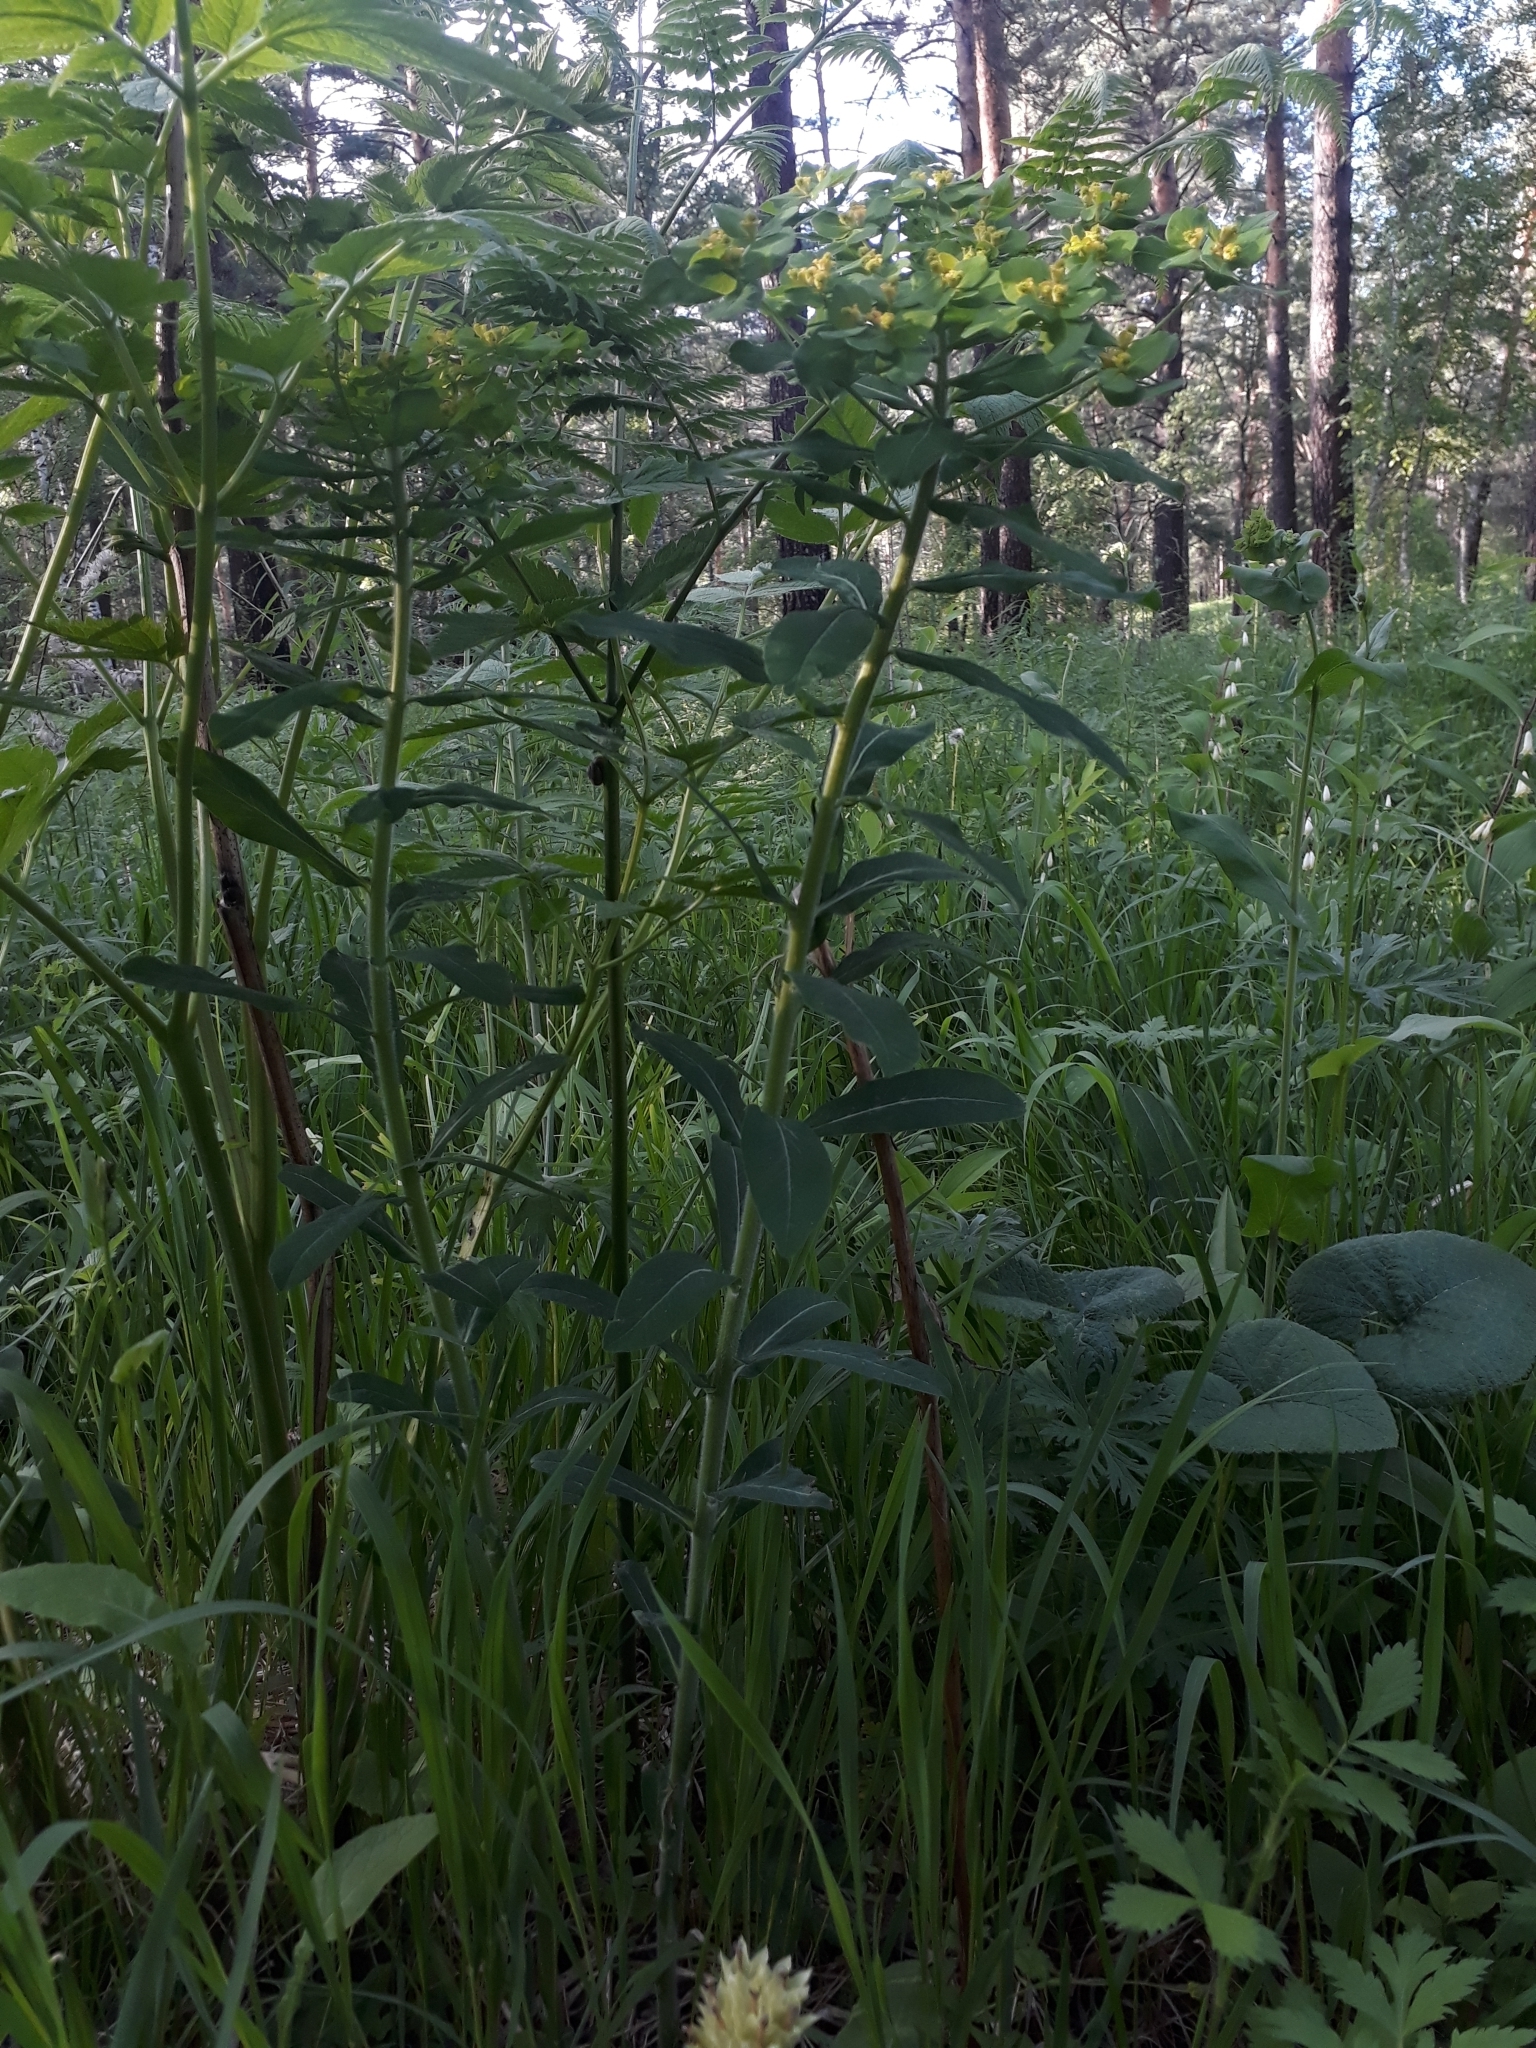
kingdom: Plantae
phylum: Tracheophyta
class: Magnoliopsida
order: Malpighiales
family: Euphorbiaceae
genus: Euphorbia
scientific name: Euphorbia pilosa
